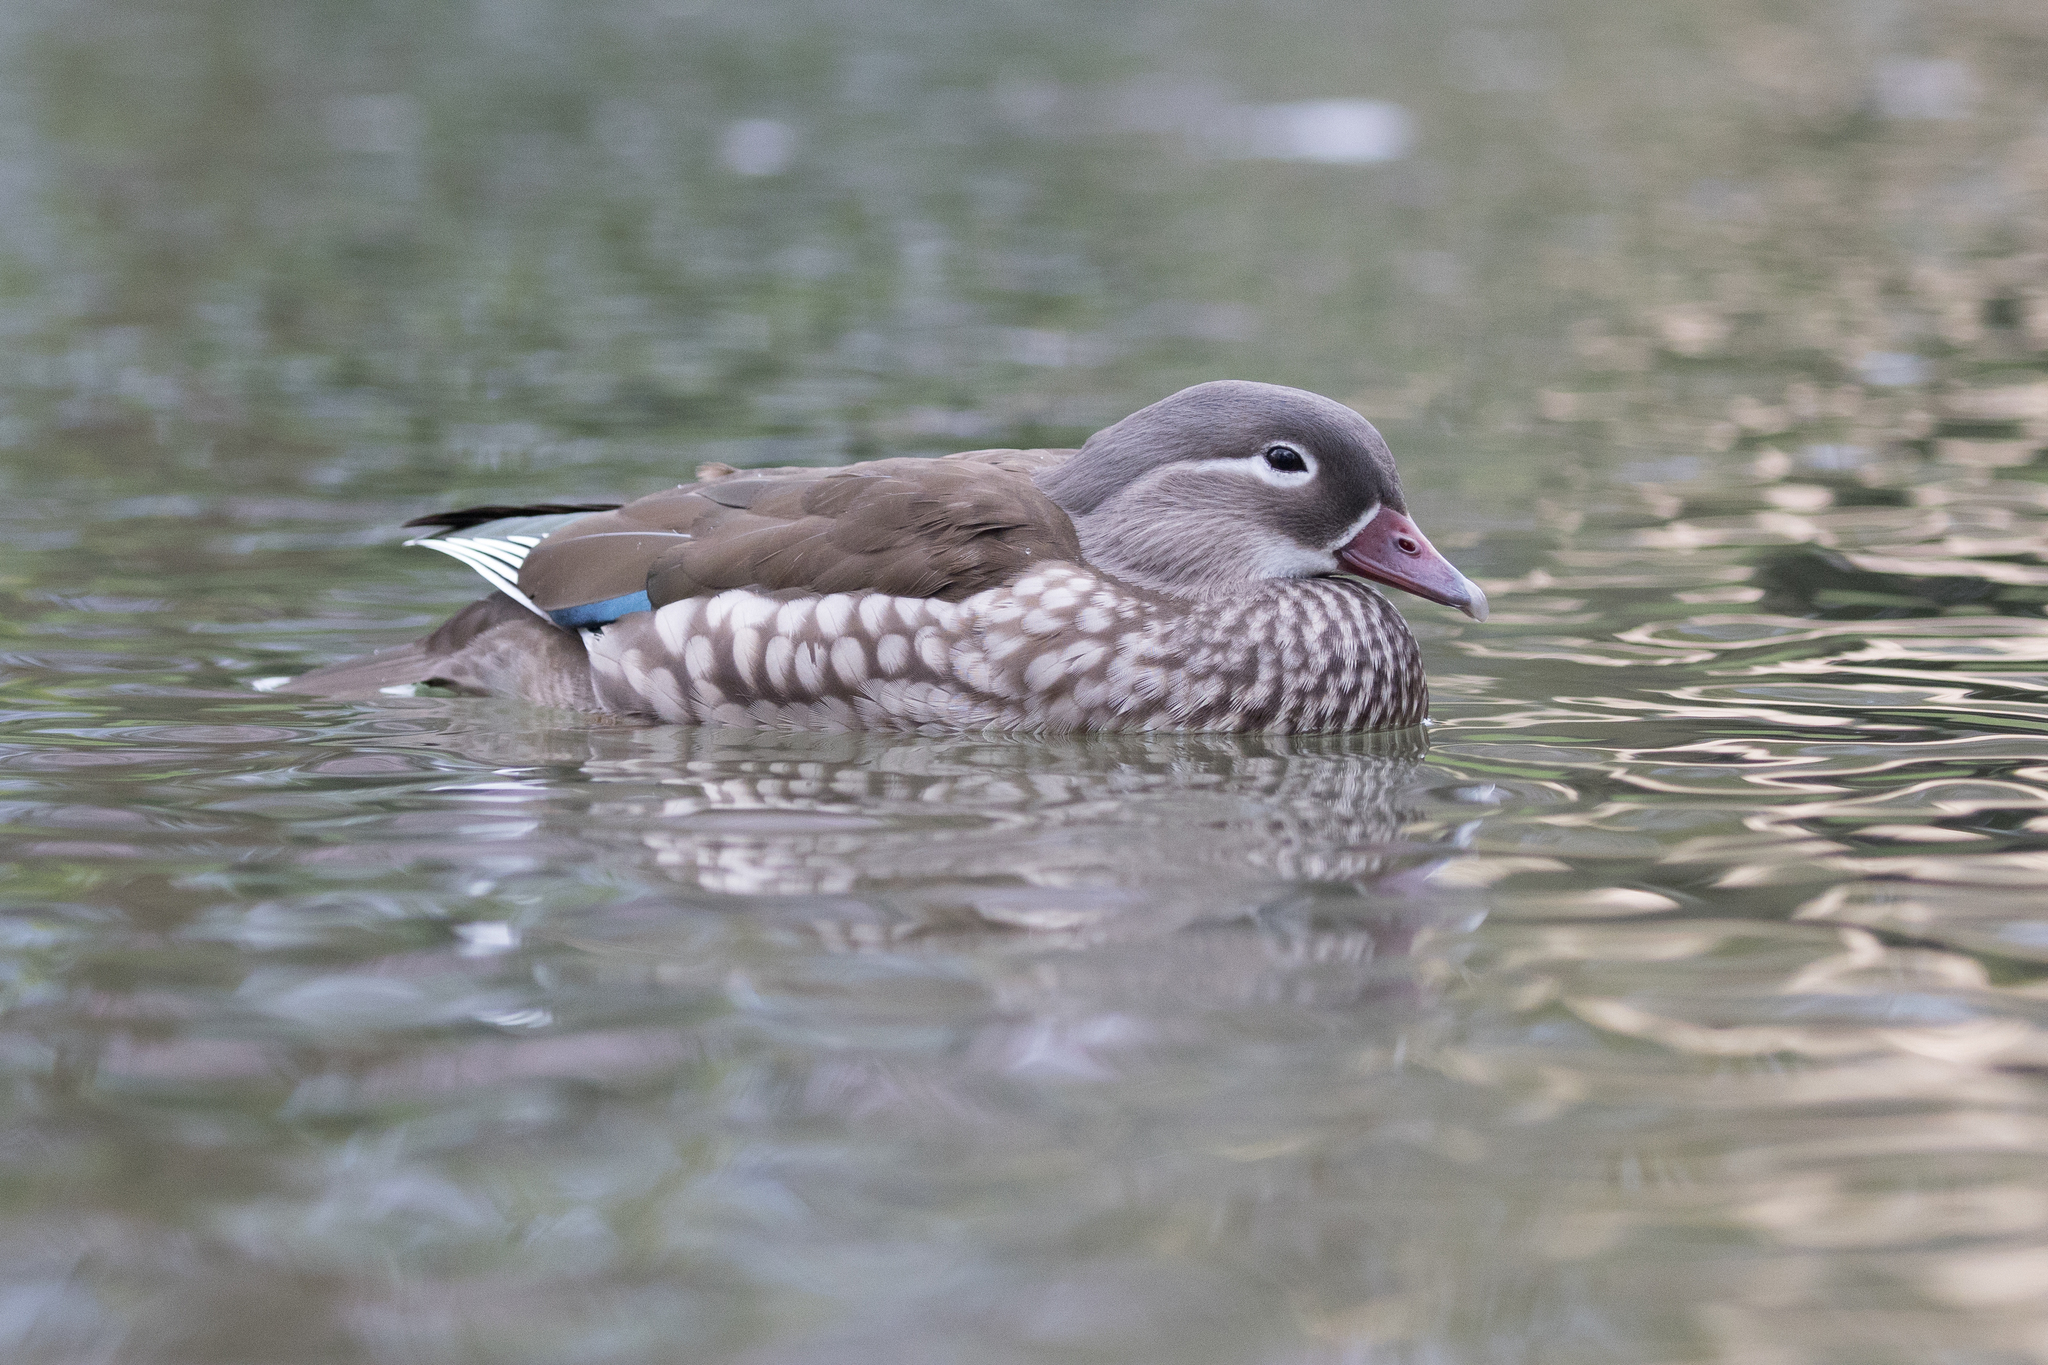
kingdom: Animalia
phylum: Chordata
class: Aves
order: Anseriformes
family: Anatidae
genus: Aix
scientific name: Aix galericulata
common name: Mandarin duck
